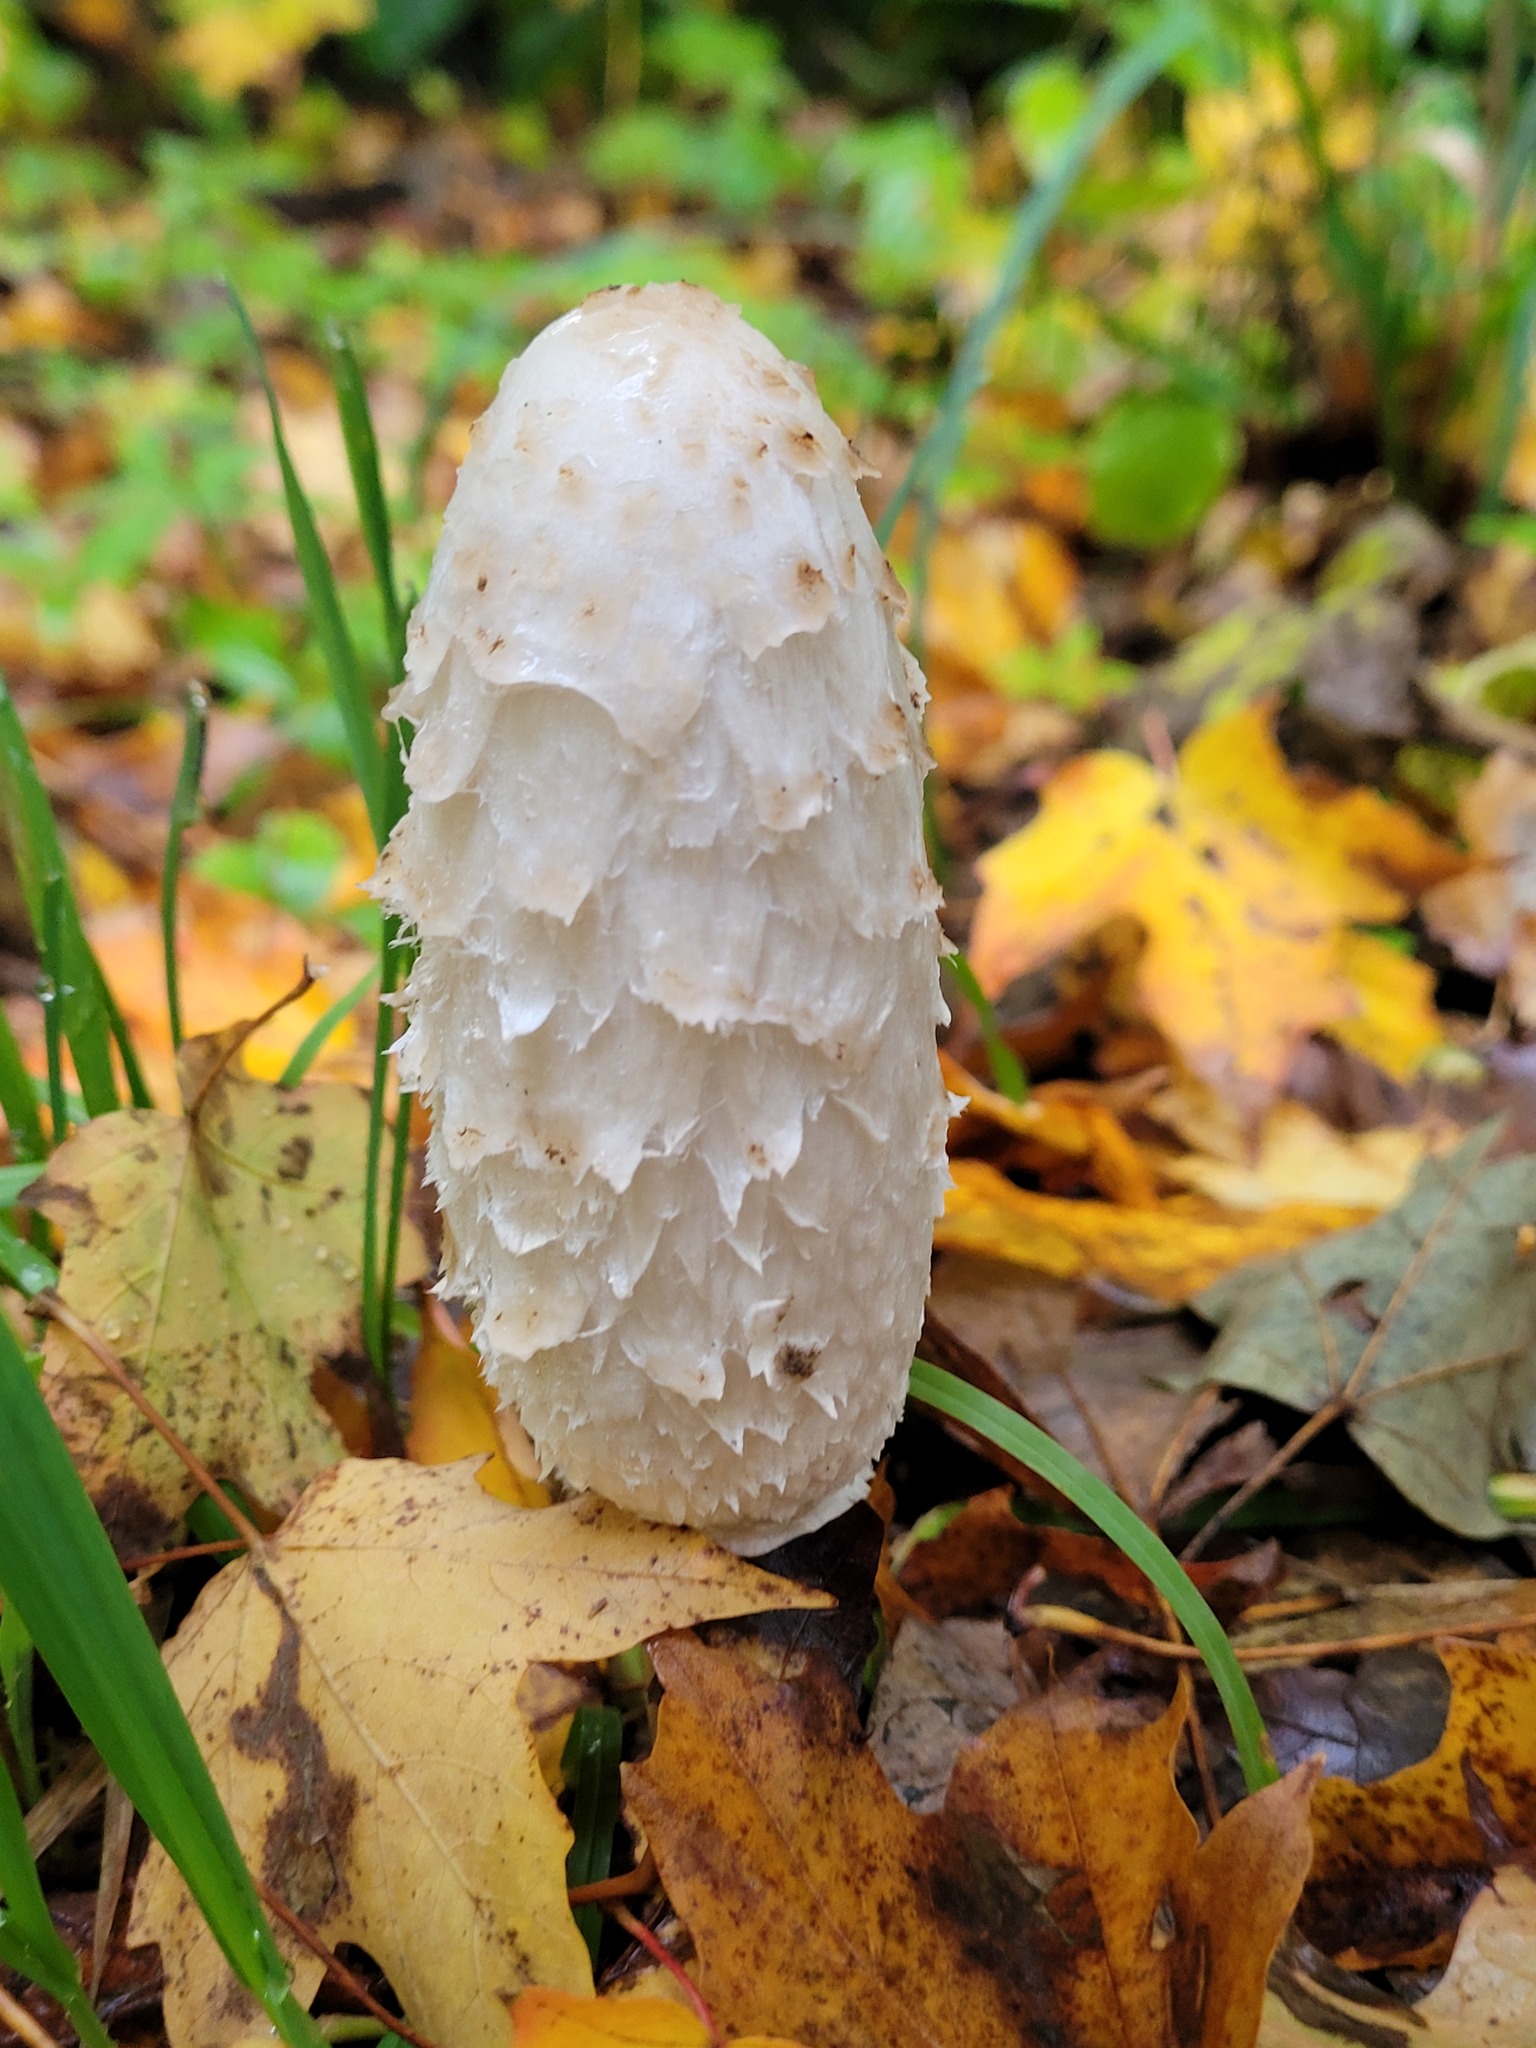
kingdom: Fungi
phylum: Basidiomycota
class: Agaricomycetes
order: Agaricales
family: Agaricaceae
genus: Coprinus
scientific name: Coprinus comatus
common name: Lawyer's wig
